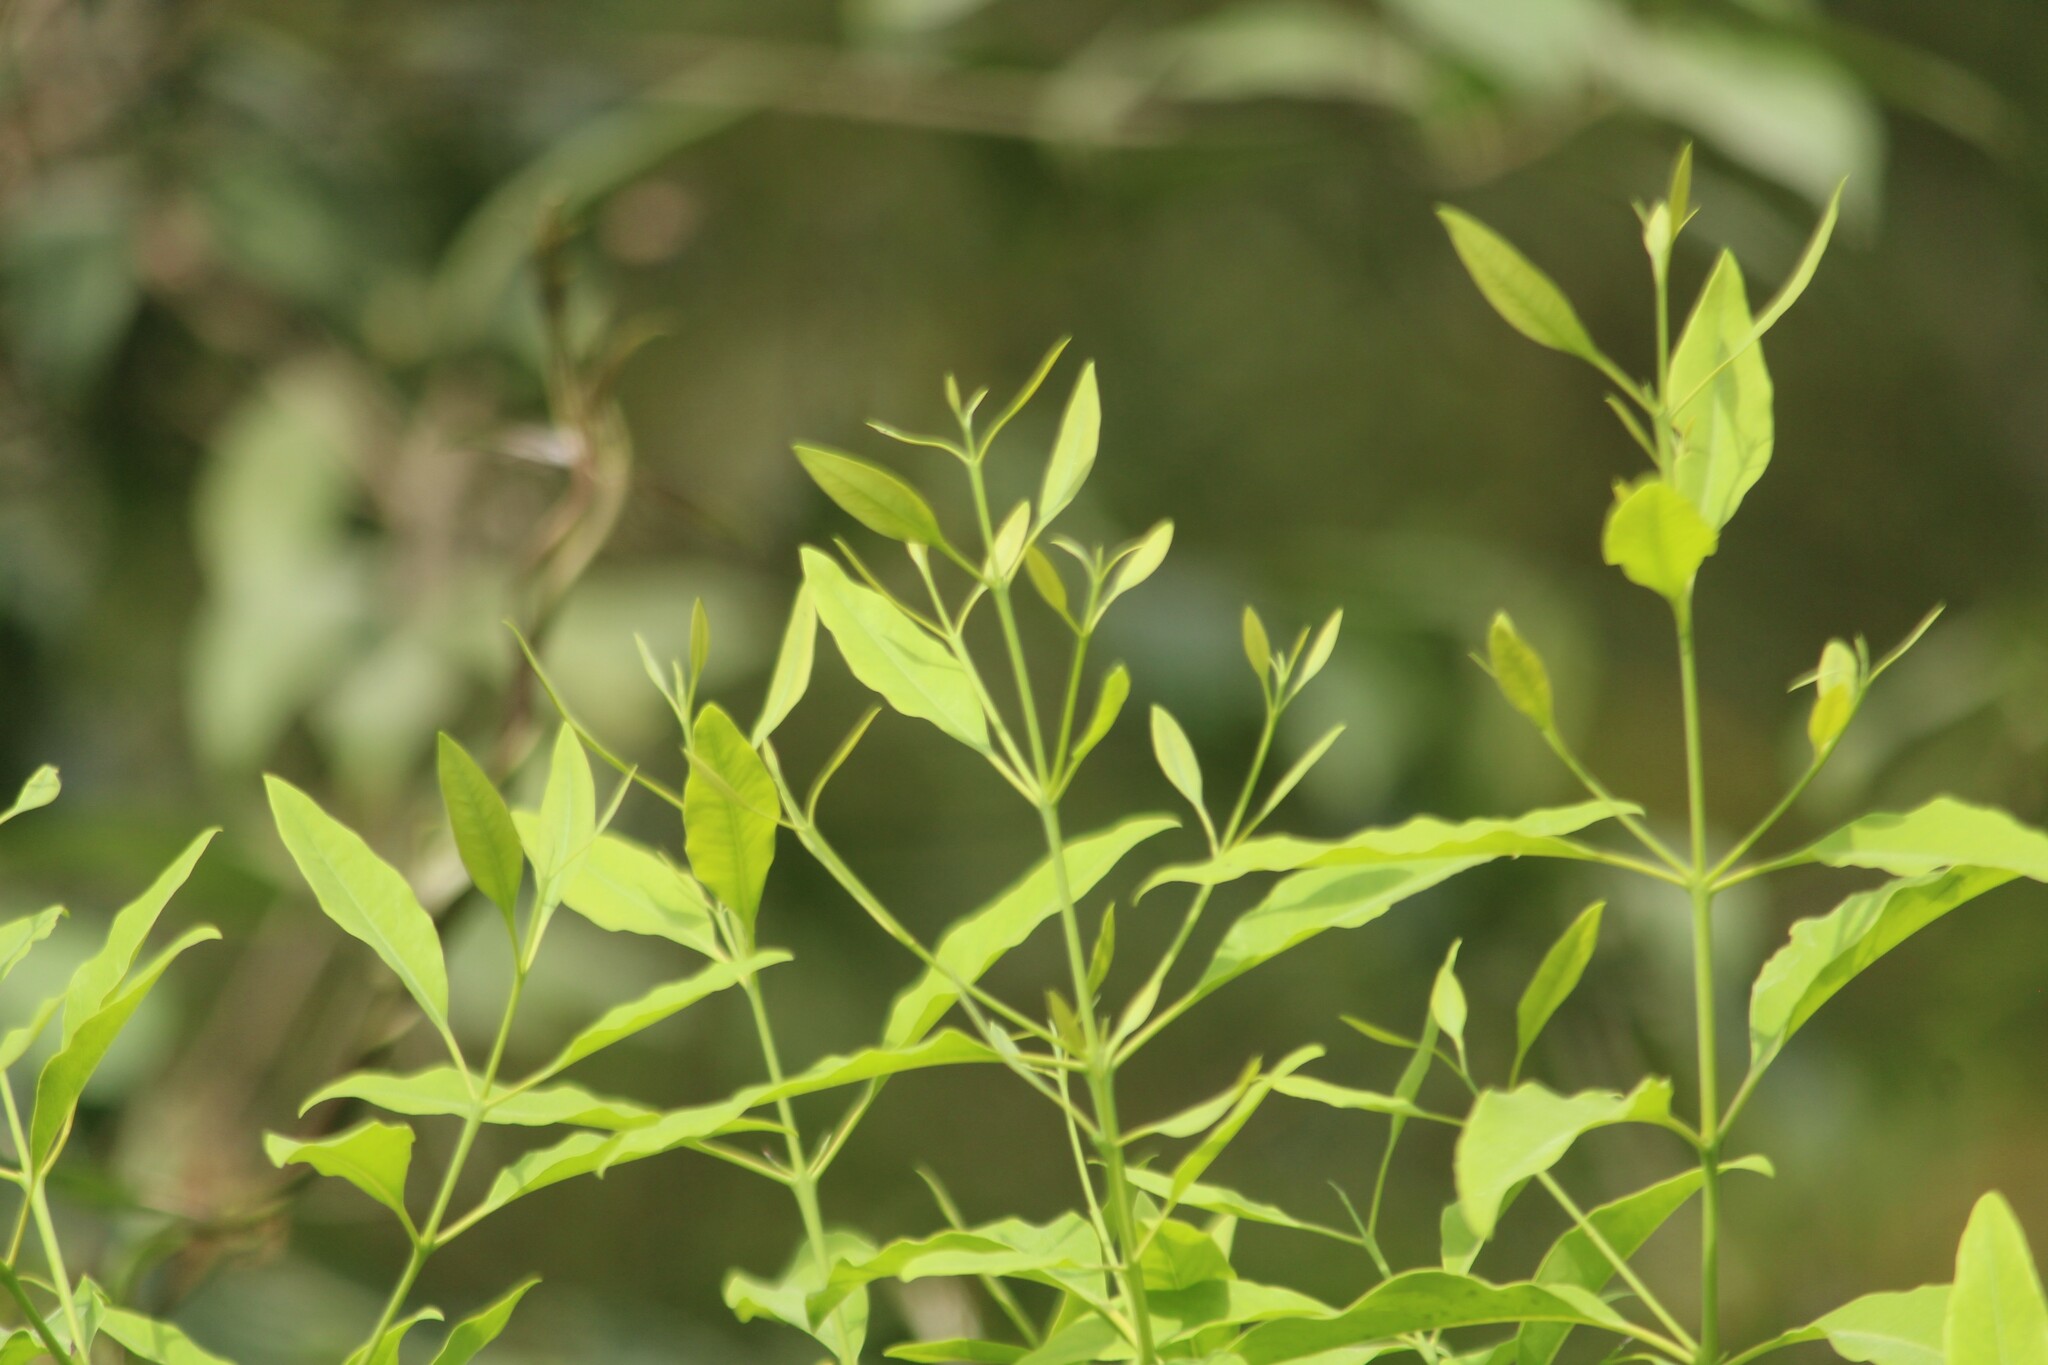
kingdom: Plantae
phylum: Tracheophyta
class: Magnoliopsida
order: Santalales
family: Santalaceae
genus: Santalum
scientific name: Santalum album
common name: Indian sandalwood
